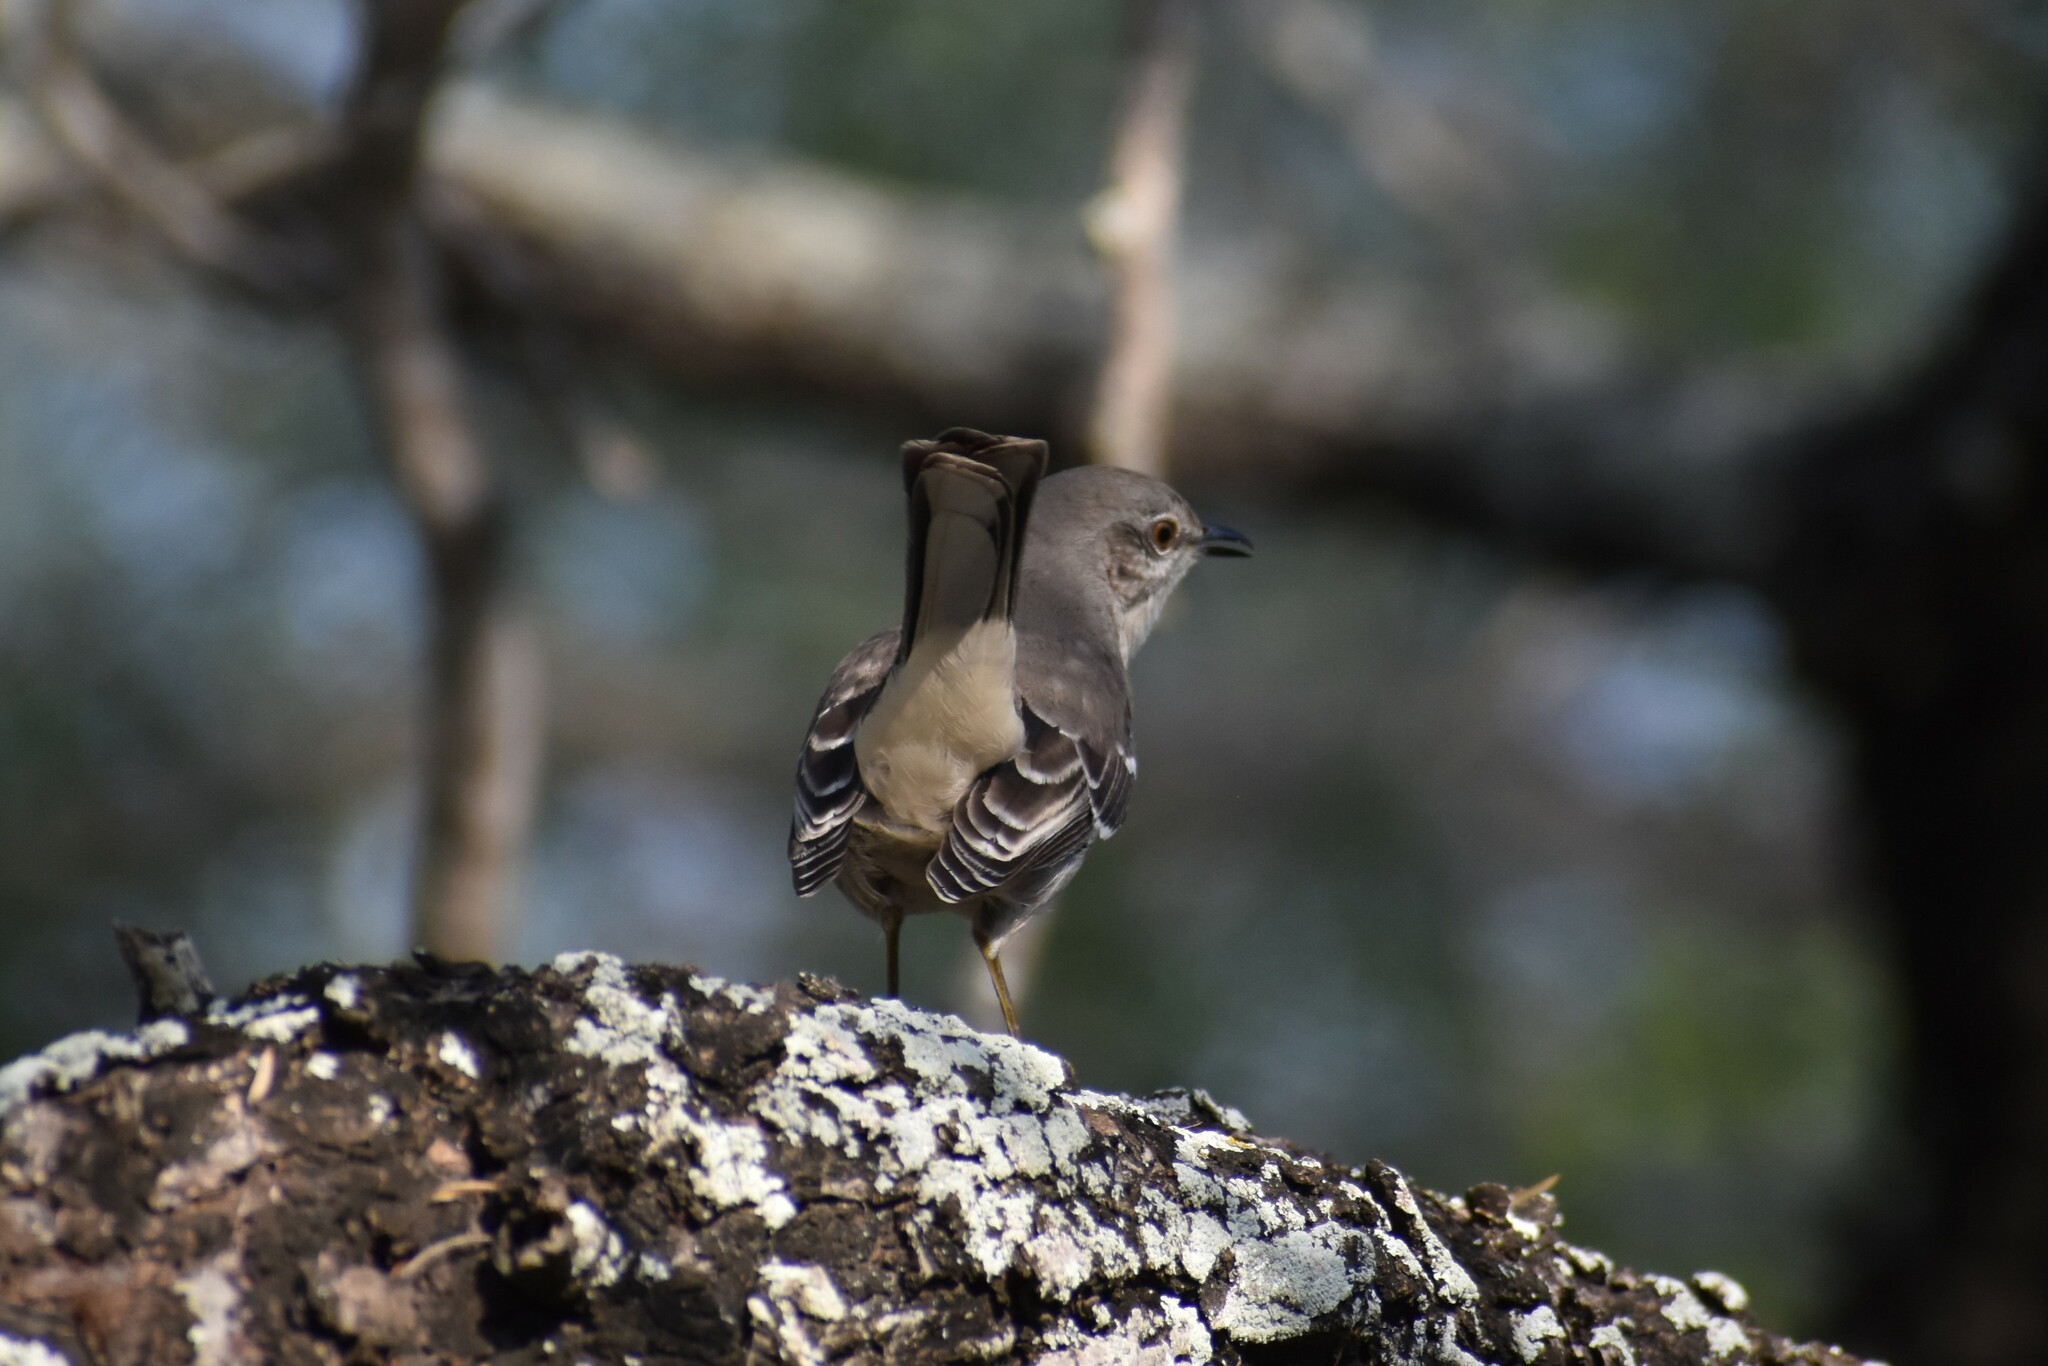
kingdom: Animalia
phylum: Chordata
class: Aves
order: Passeriformes
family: Mimidae
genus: Mimus
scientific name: Mimus polyglottos
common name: Northern mockingbird
